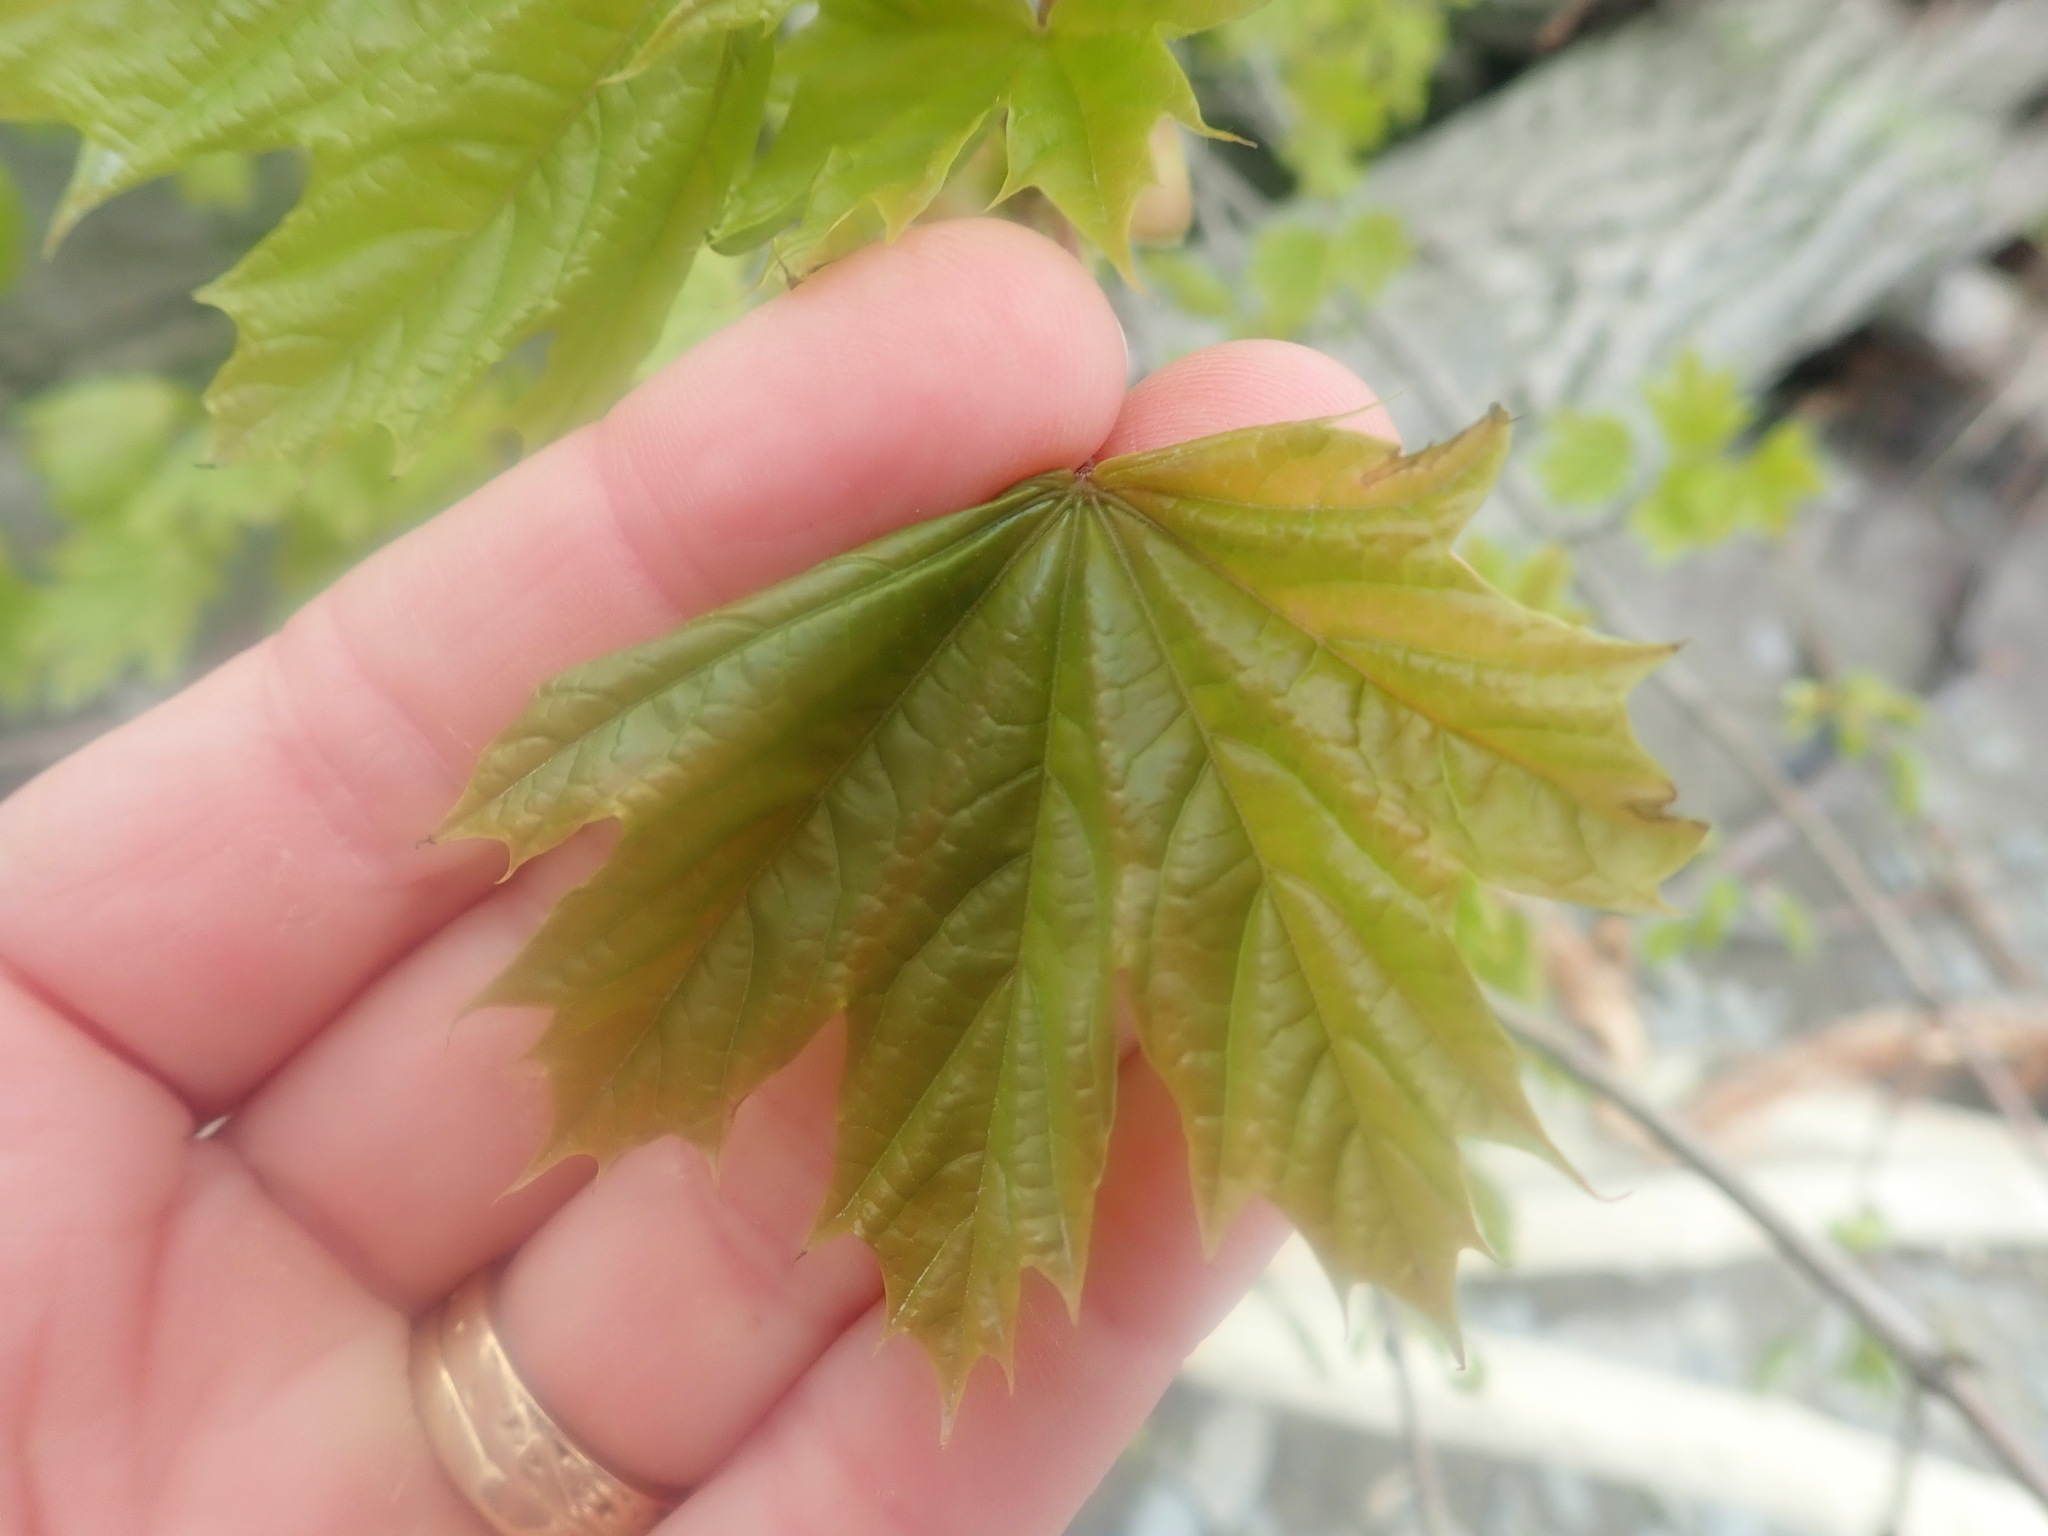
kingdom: Plantae
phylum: Tracheophyta
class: Magnoliopsida
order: Sapindales
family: Sapindaceae
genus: Acer
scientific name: Acer platanoides
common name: Norway maple
